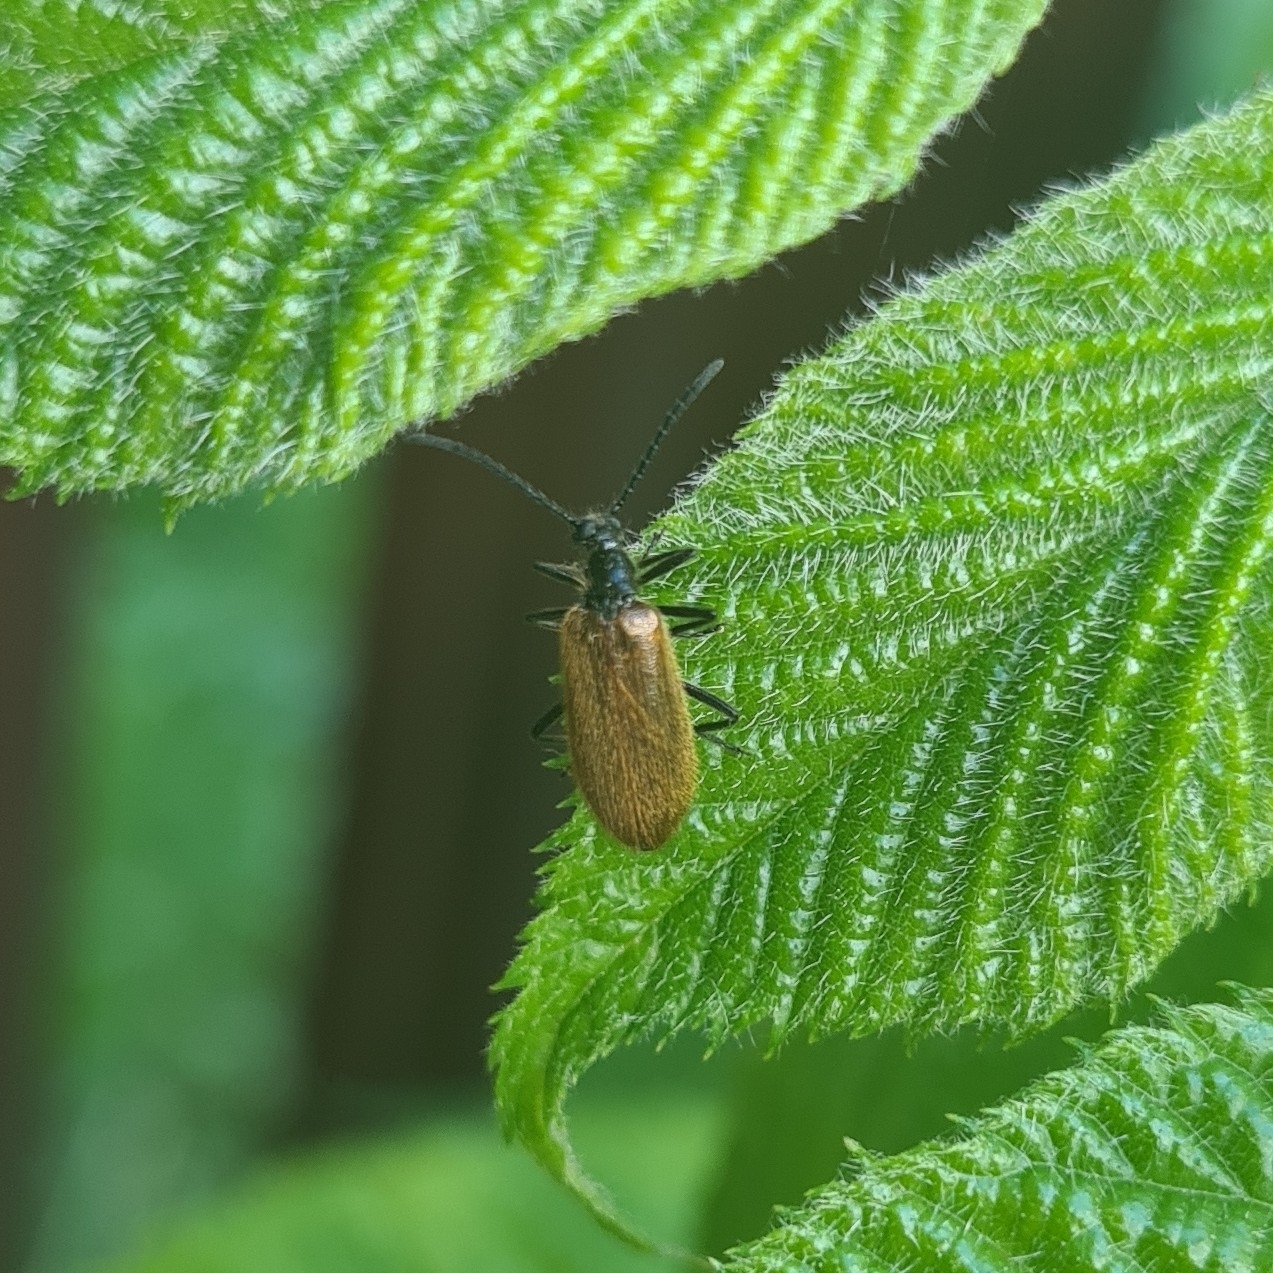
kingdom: Animalia
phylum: Arthropoda
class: Insecta
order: Coleoptera
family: Tenebrionidae
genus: Lagria
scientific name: Lagria hirta
